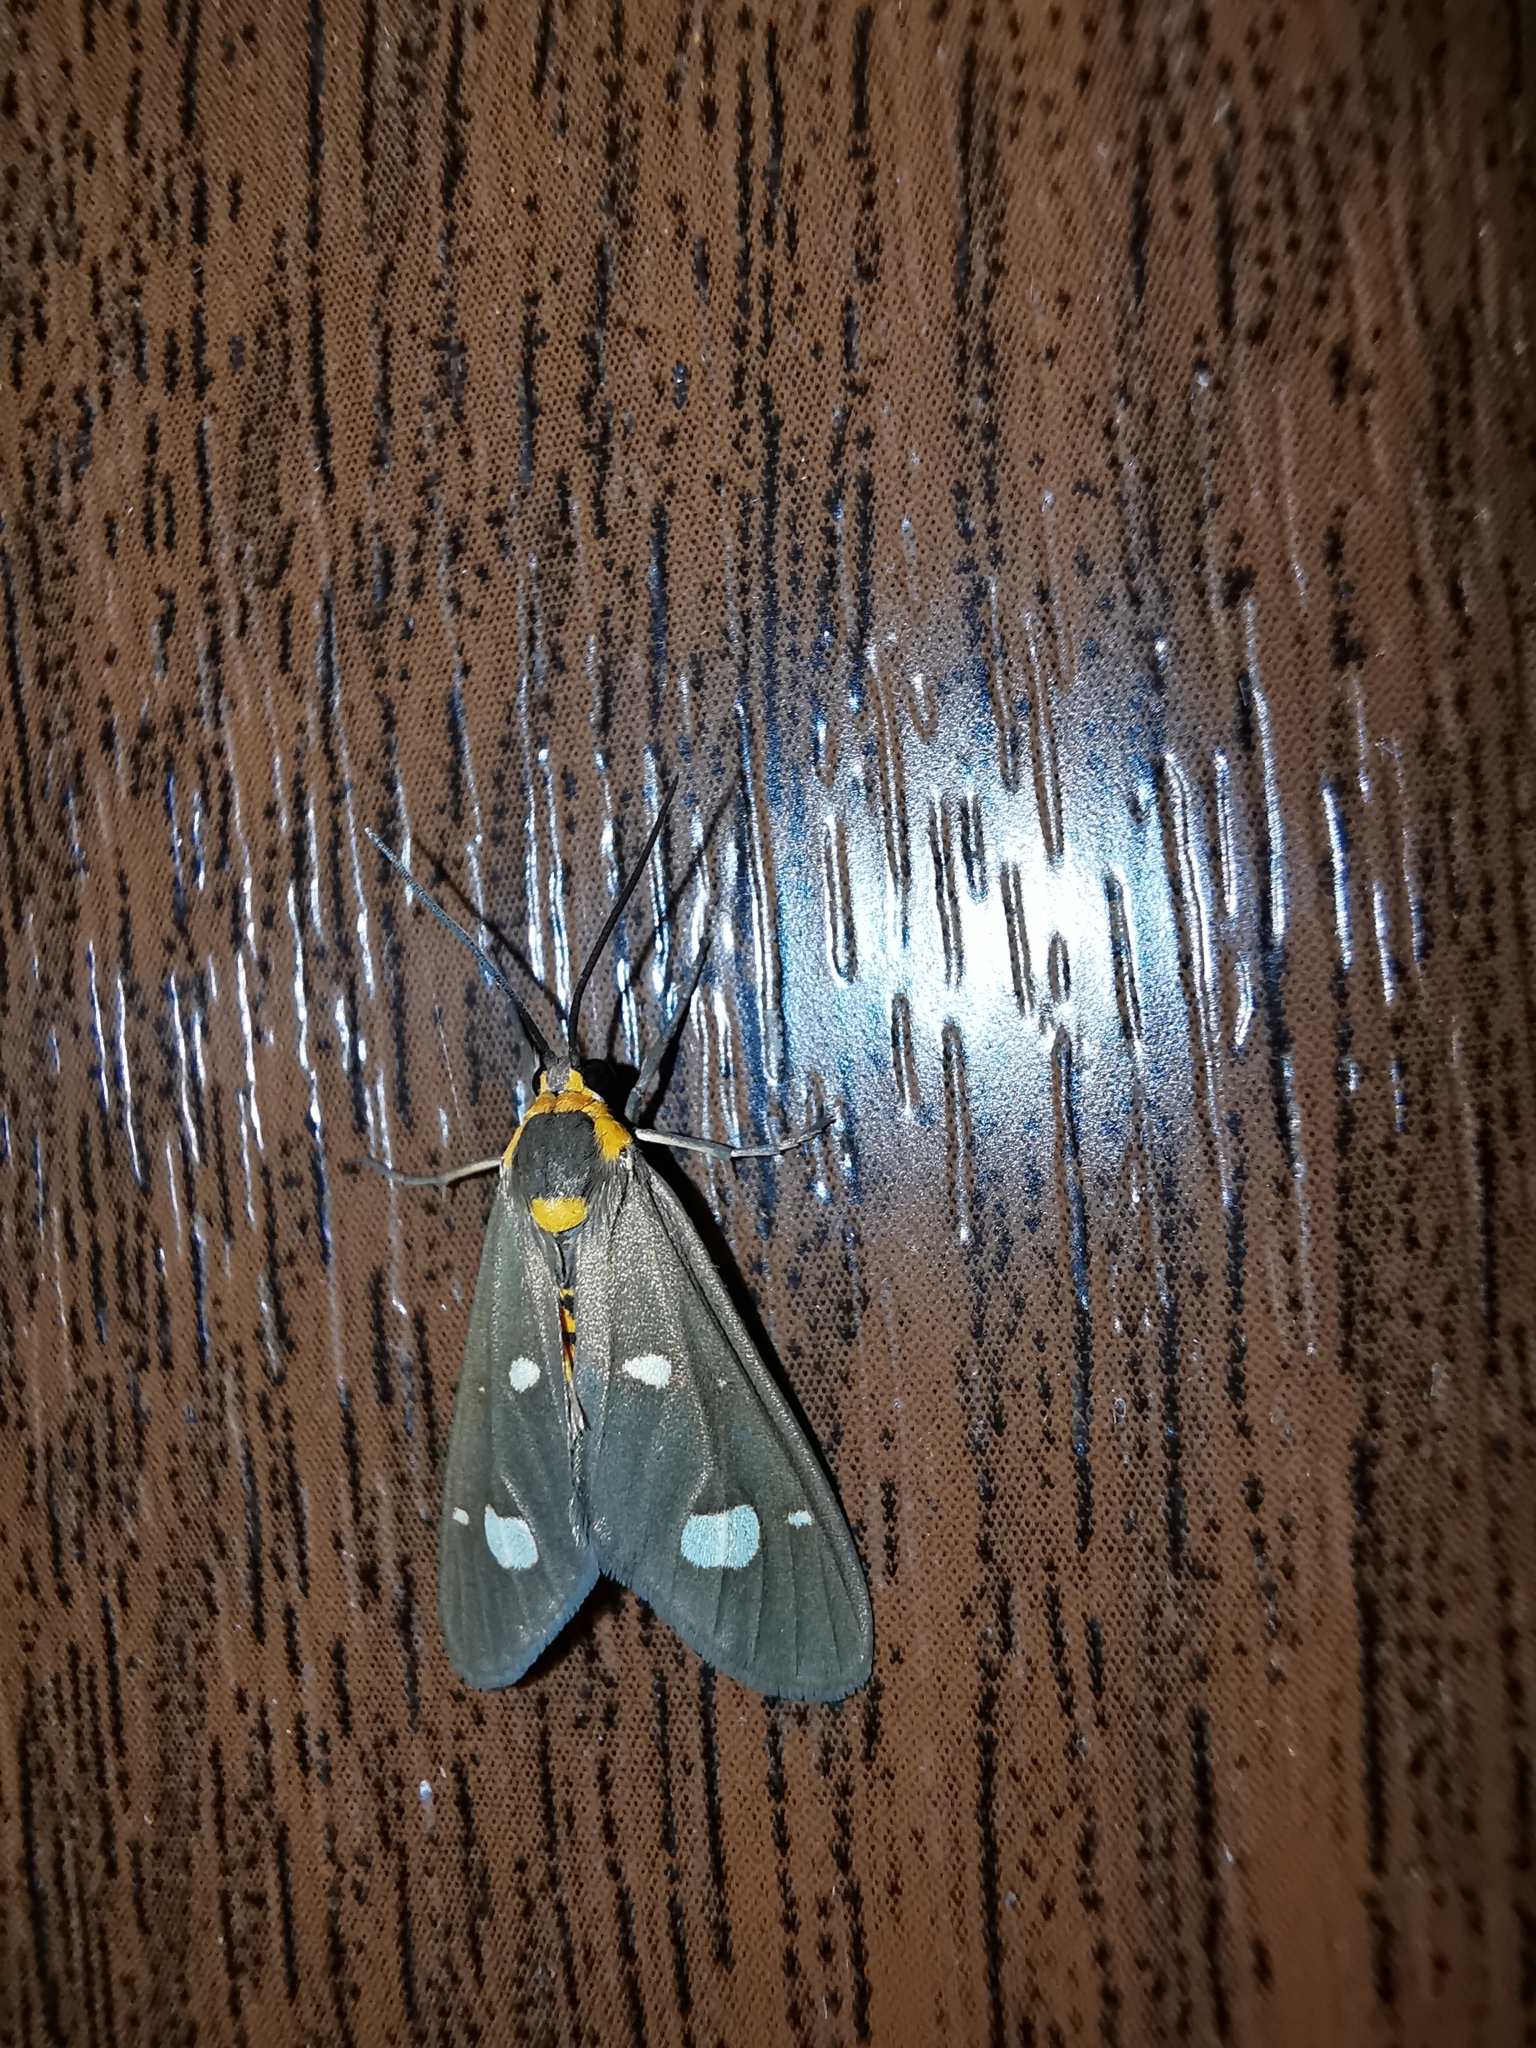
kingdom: Animalia
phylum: Arthropoda
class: Insecta
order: Lepidoptera
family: Erebidae
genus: Dysauxes
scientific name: Dysauxes punctata
